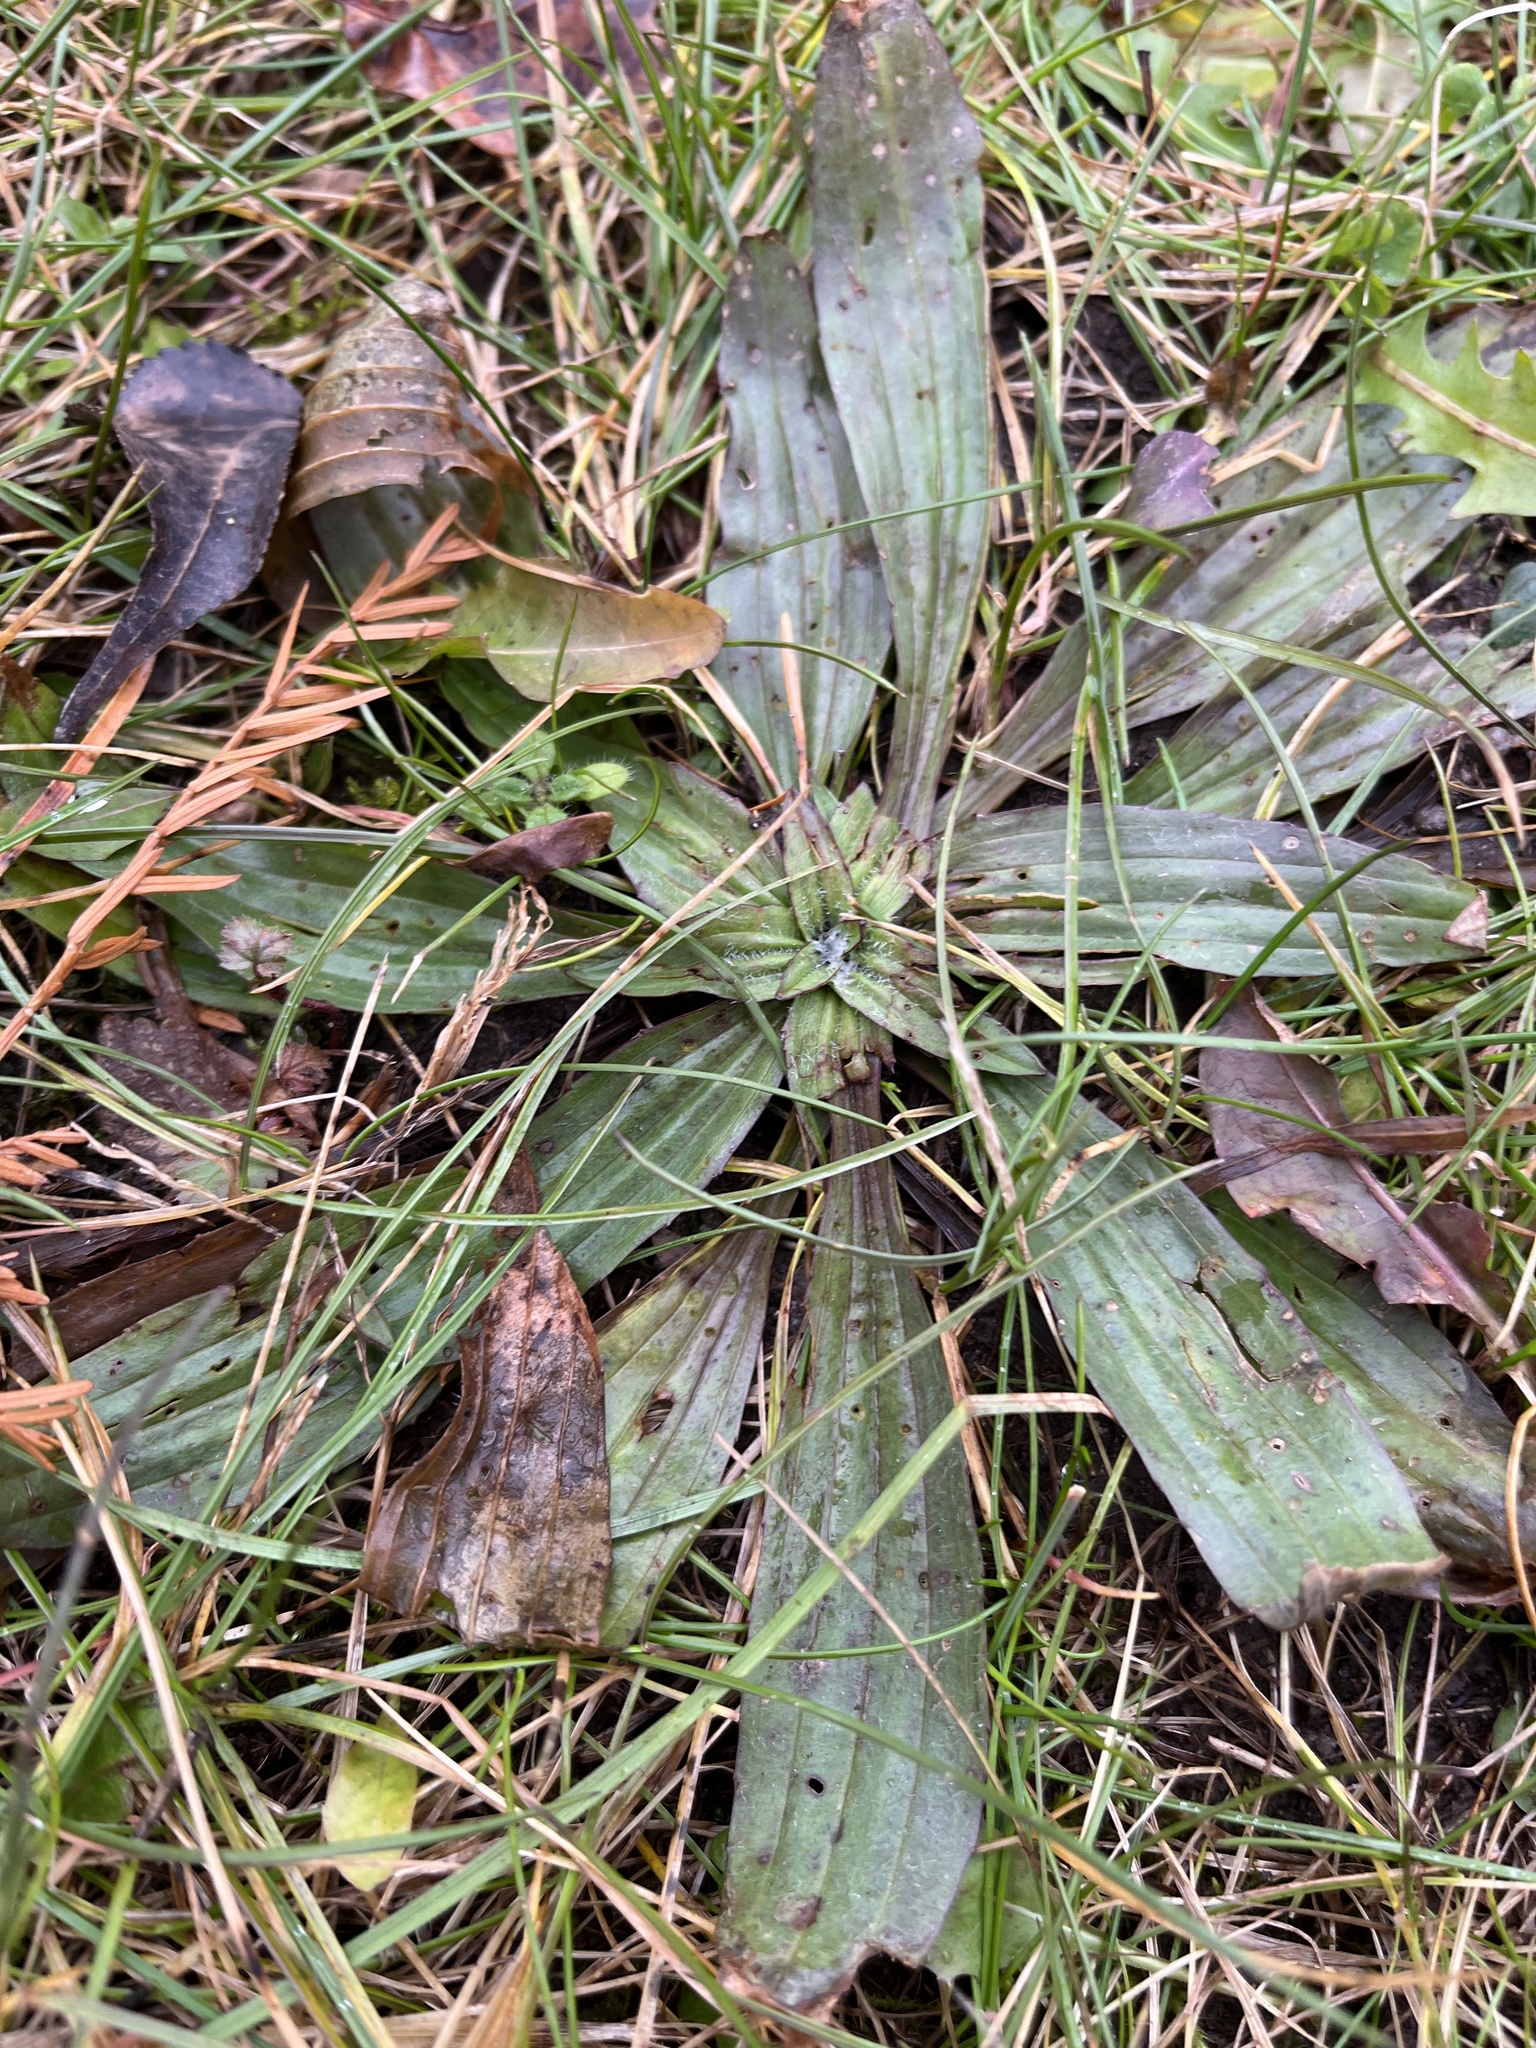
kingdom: Plantae
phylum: Tracheophyta
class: Magnoliopsida
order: Lamiales
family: Plantaginaceae
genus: Plantago
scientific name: Plantago lanceolata
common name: Ribwort plantain
